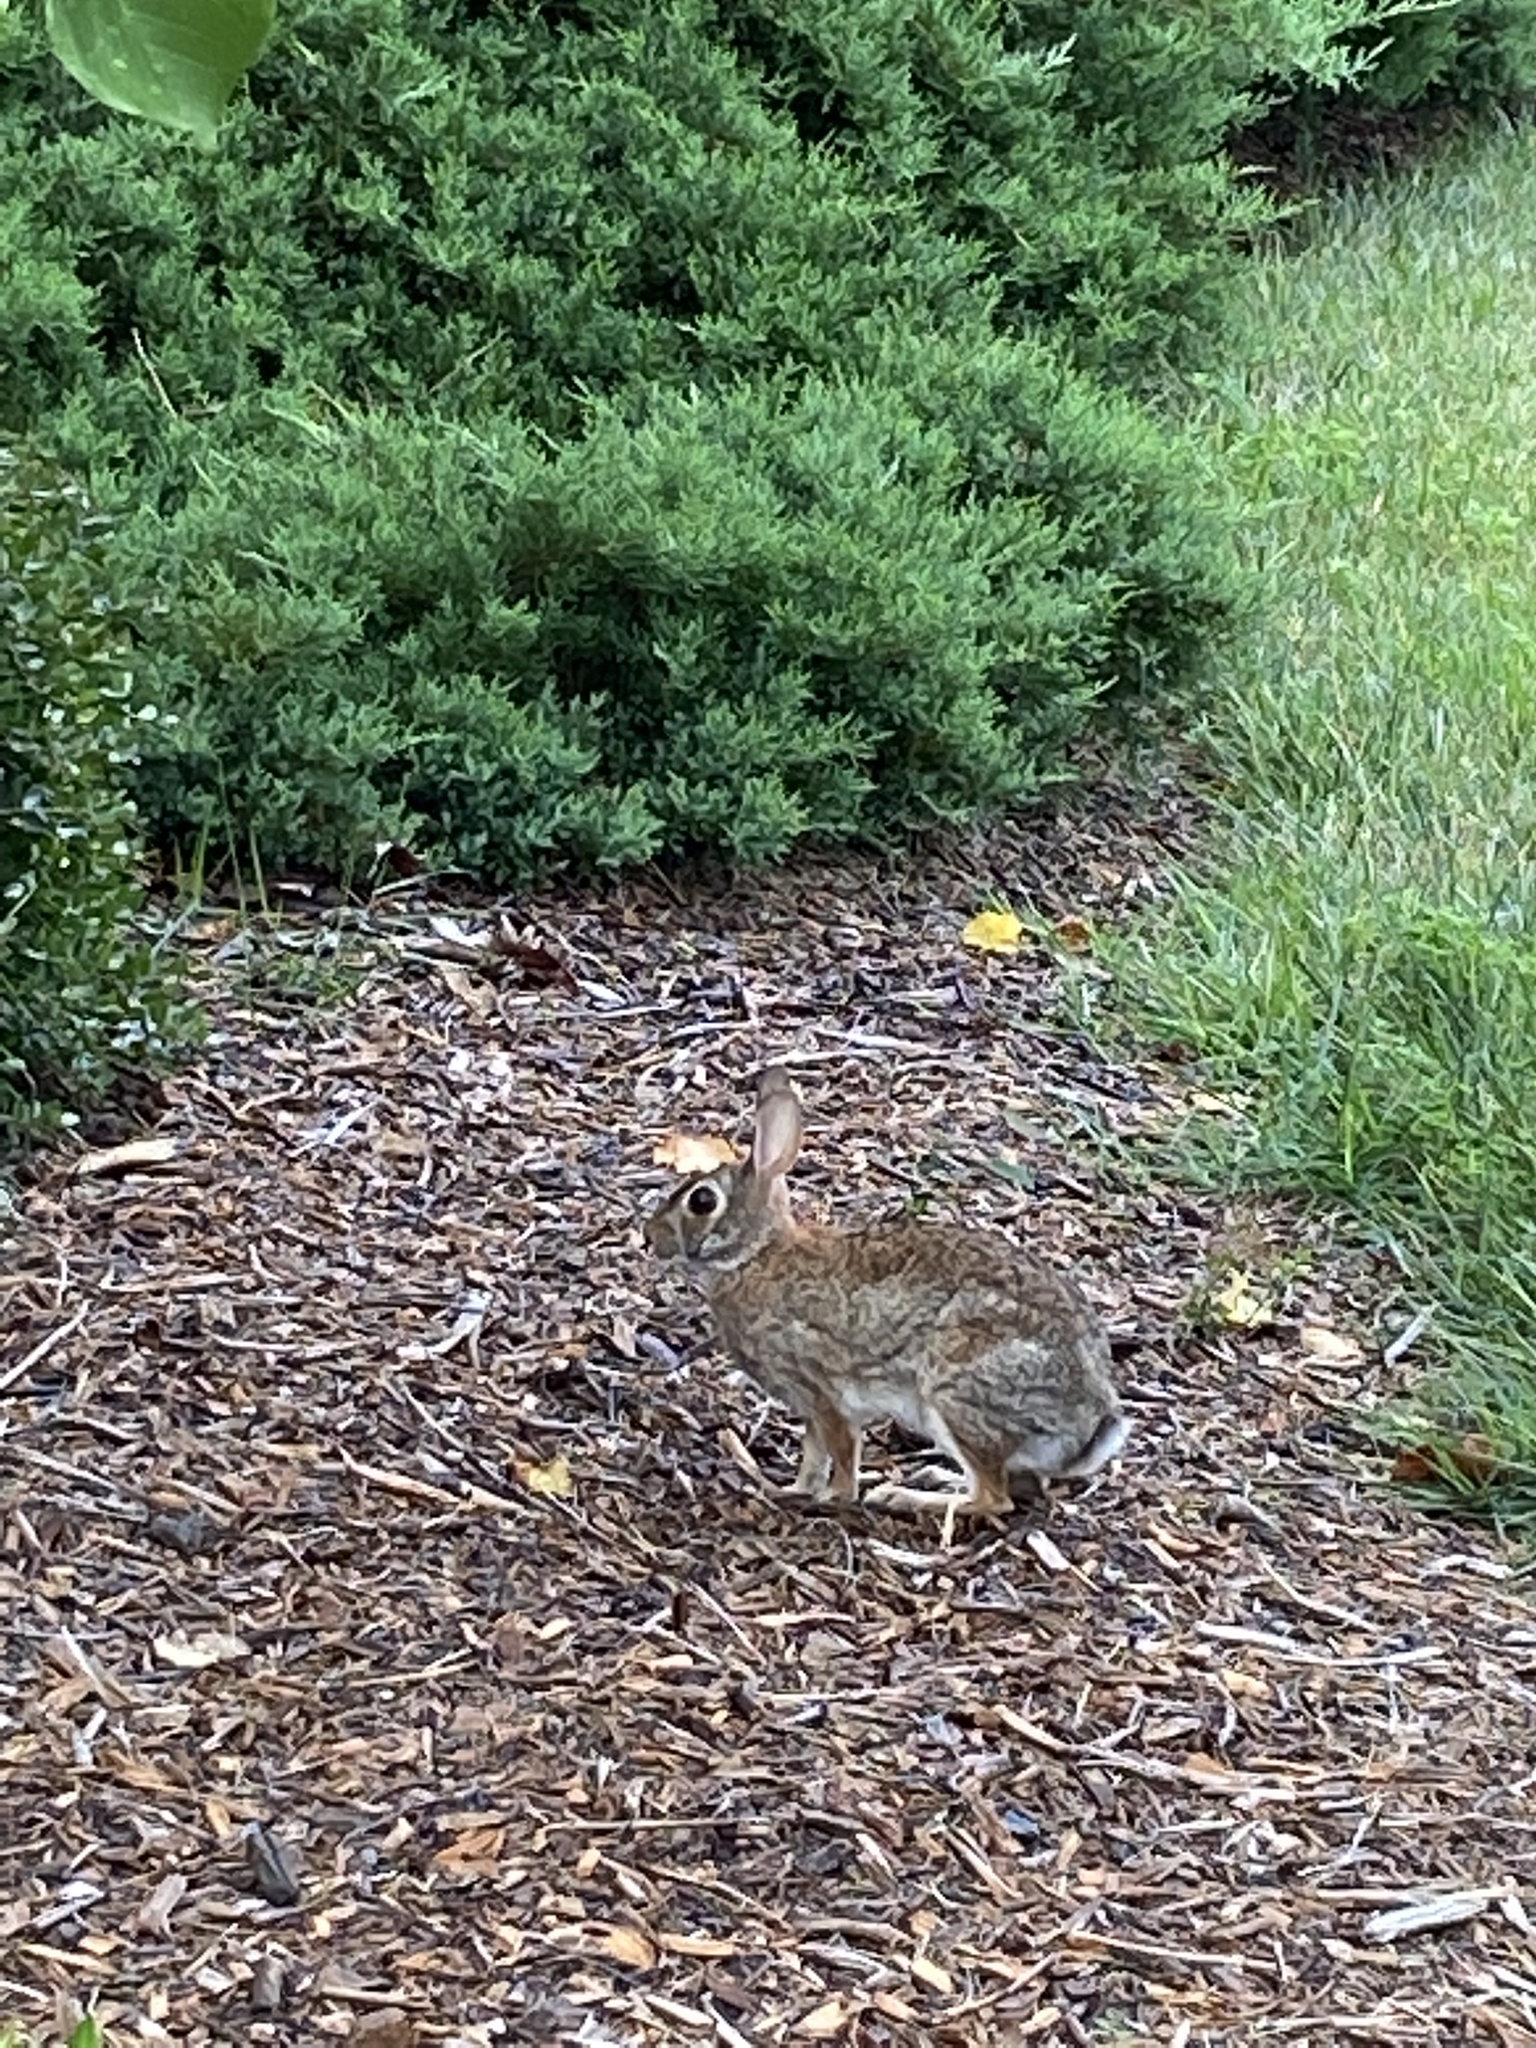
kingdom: Animalia
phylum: Chordata
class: Mammalia
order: Lagomorpha
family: Leporidae
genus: Sylvilagus
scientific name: Sylvilagus floridanus
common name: Eastern cottontail
